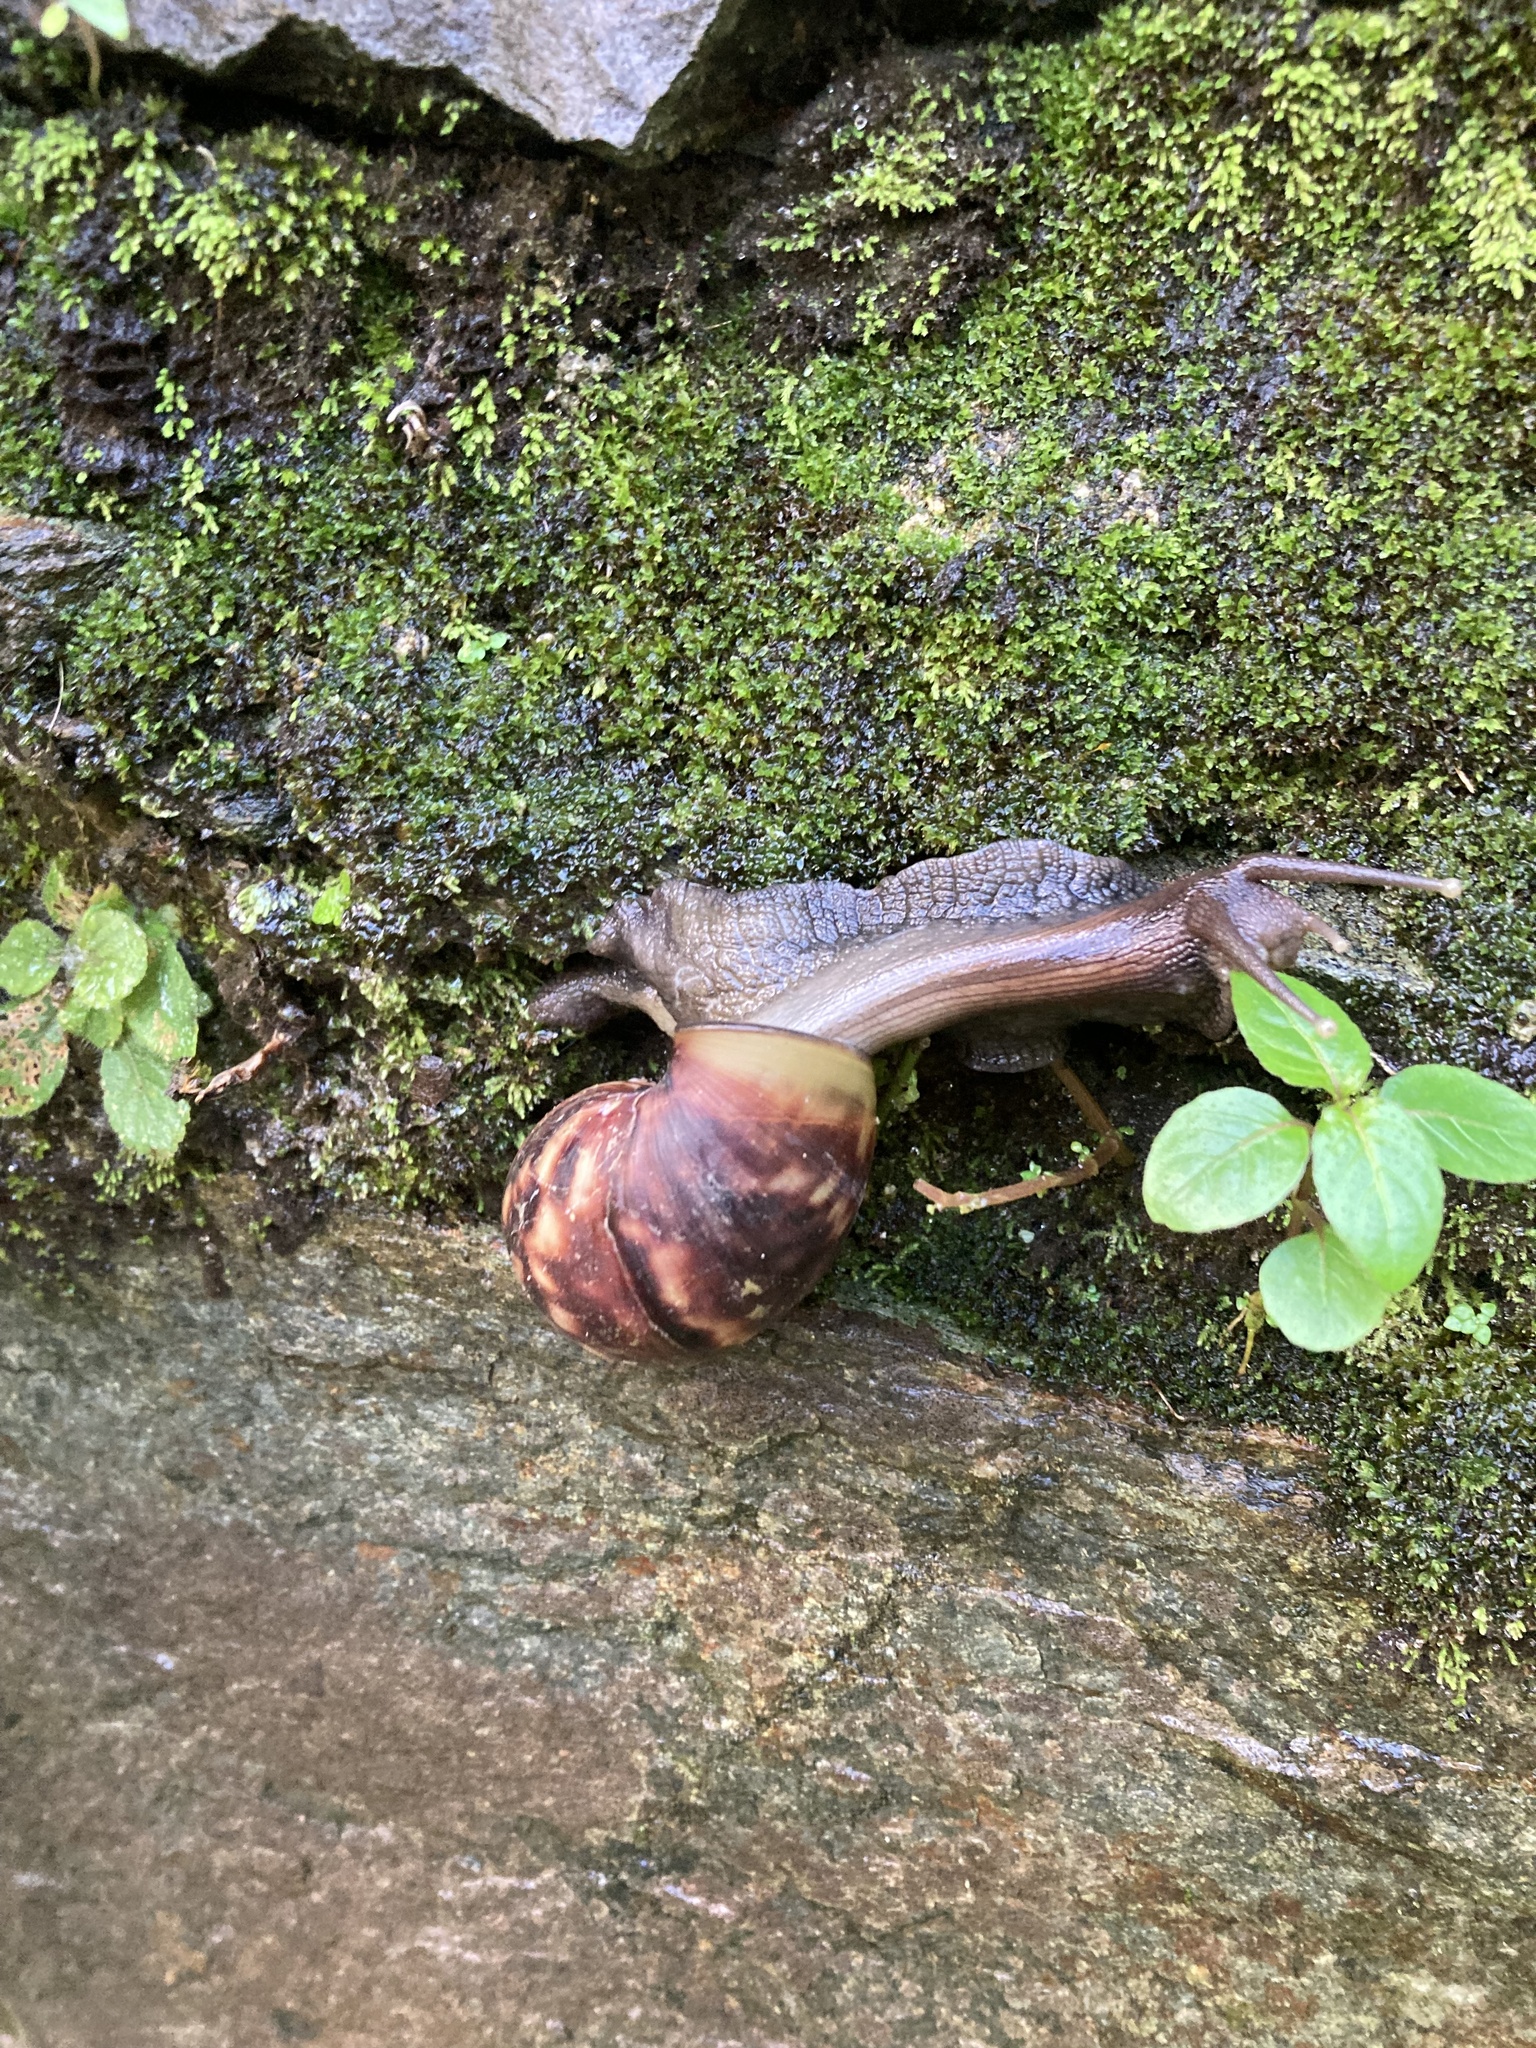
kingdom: Animalia
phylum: Mollusca
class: Gastropoda
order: Stylommatophora
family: Achatinidae
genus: Lissachatina
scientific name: Lissachatina fulica
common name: Giant african snail
